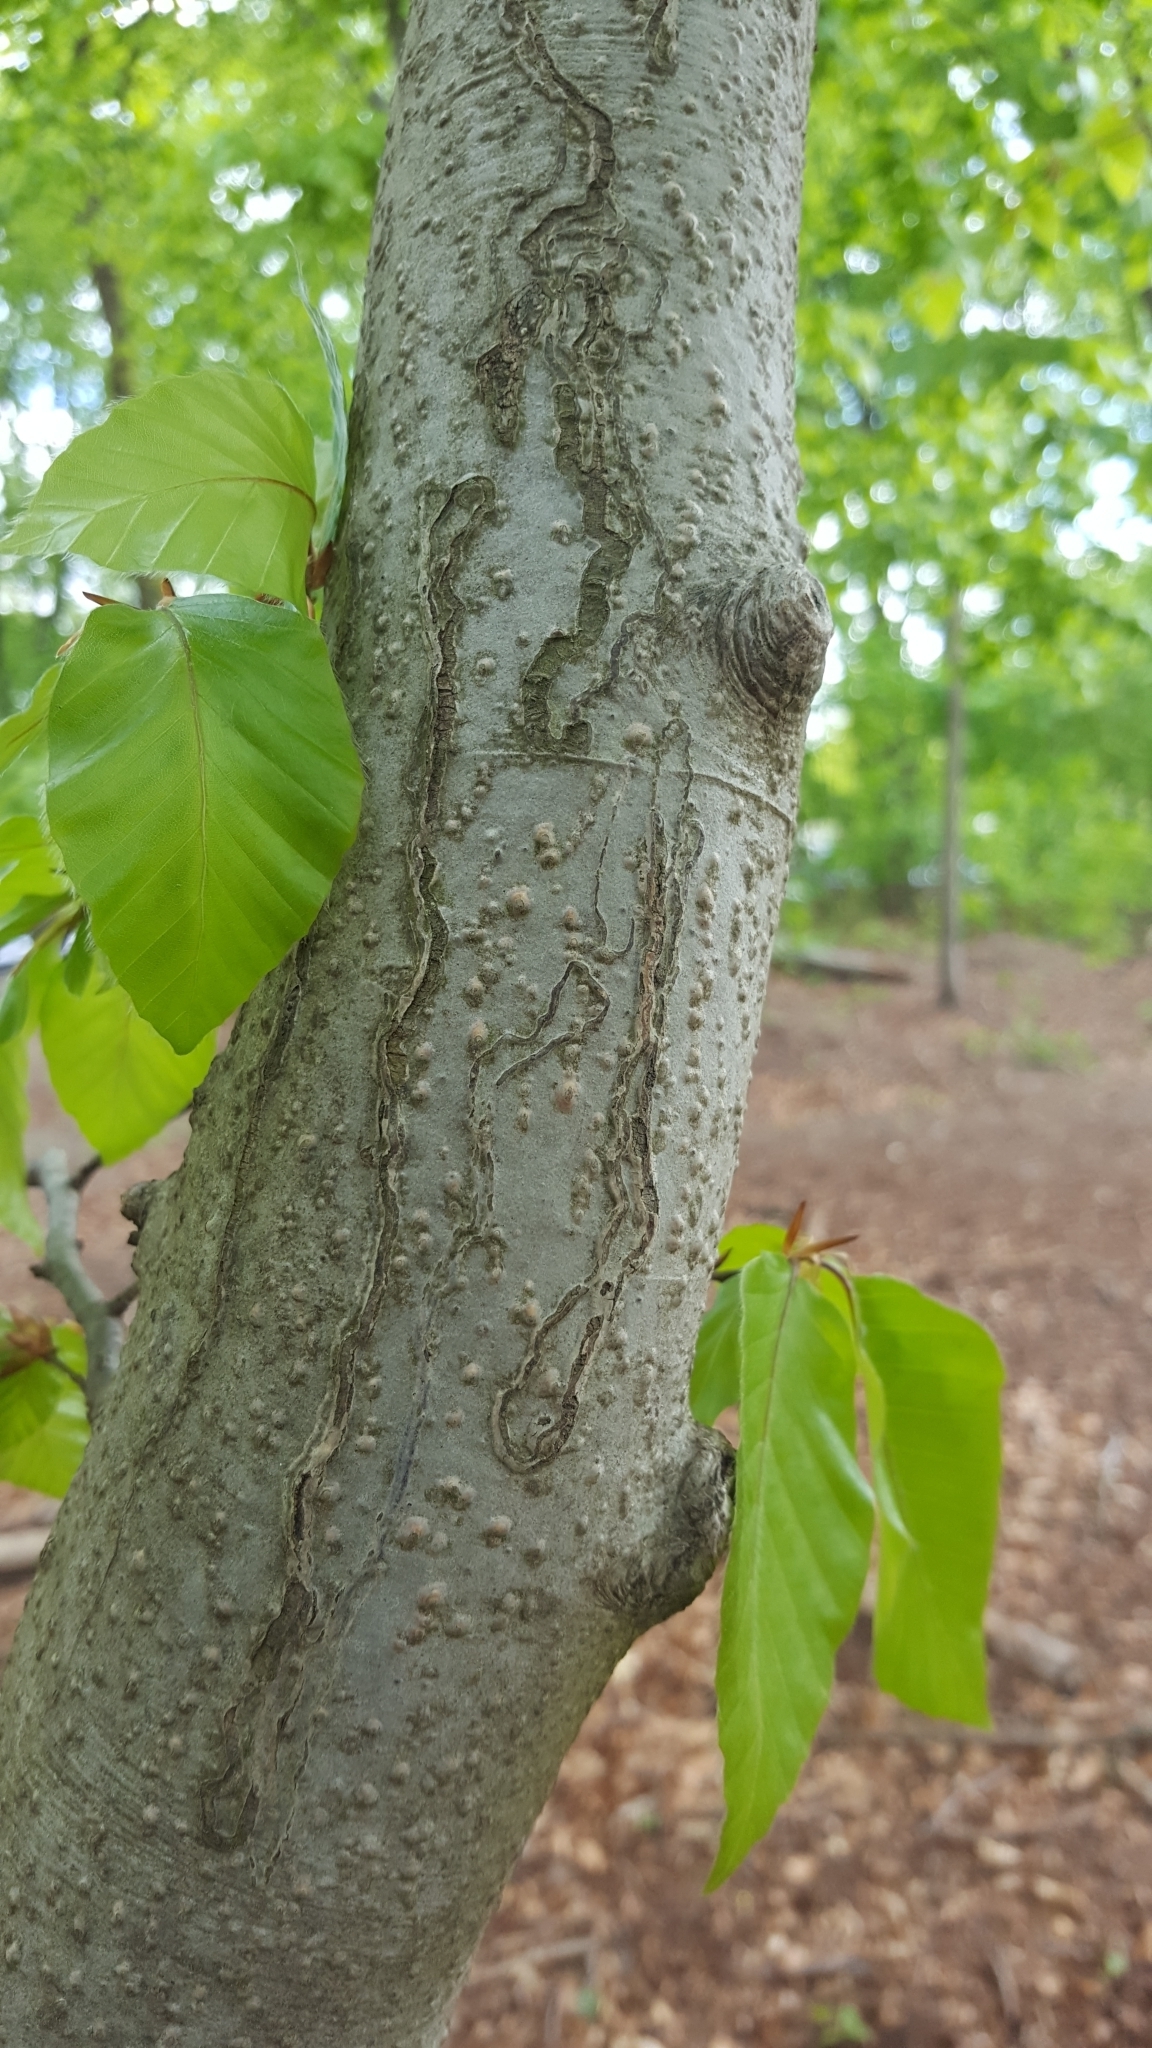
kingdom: Animalia
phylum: Arthropoda
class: Insecta
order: Lepidoptera
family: Nepticulidae
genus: Zimmermannia
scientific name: Zimmermannia liebwerdella
